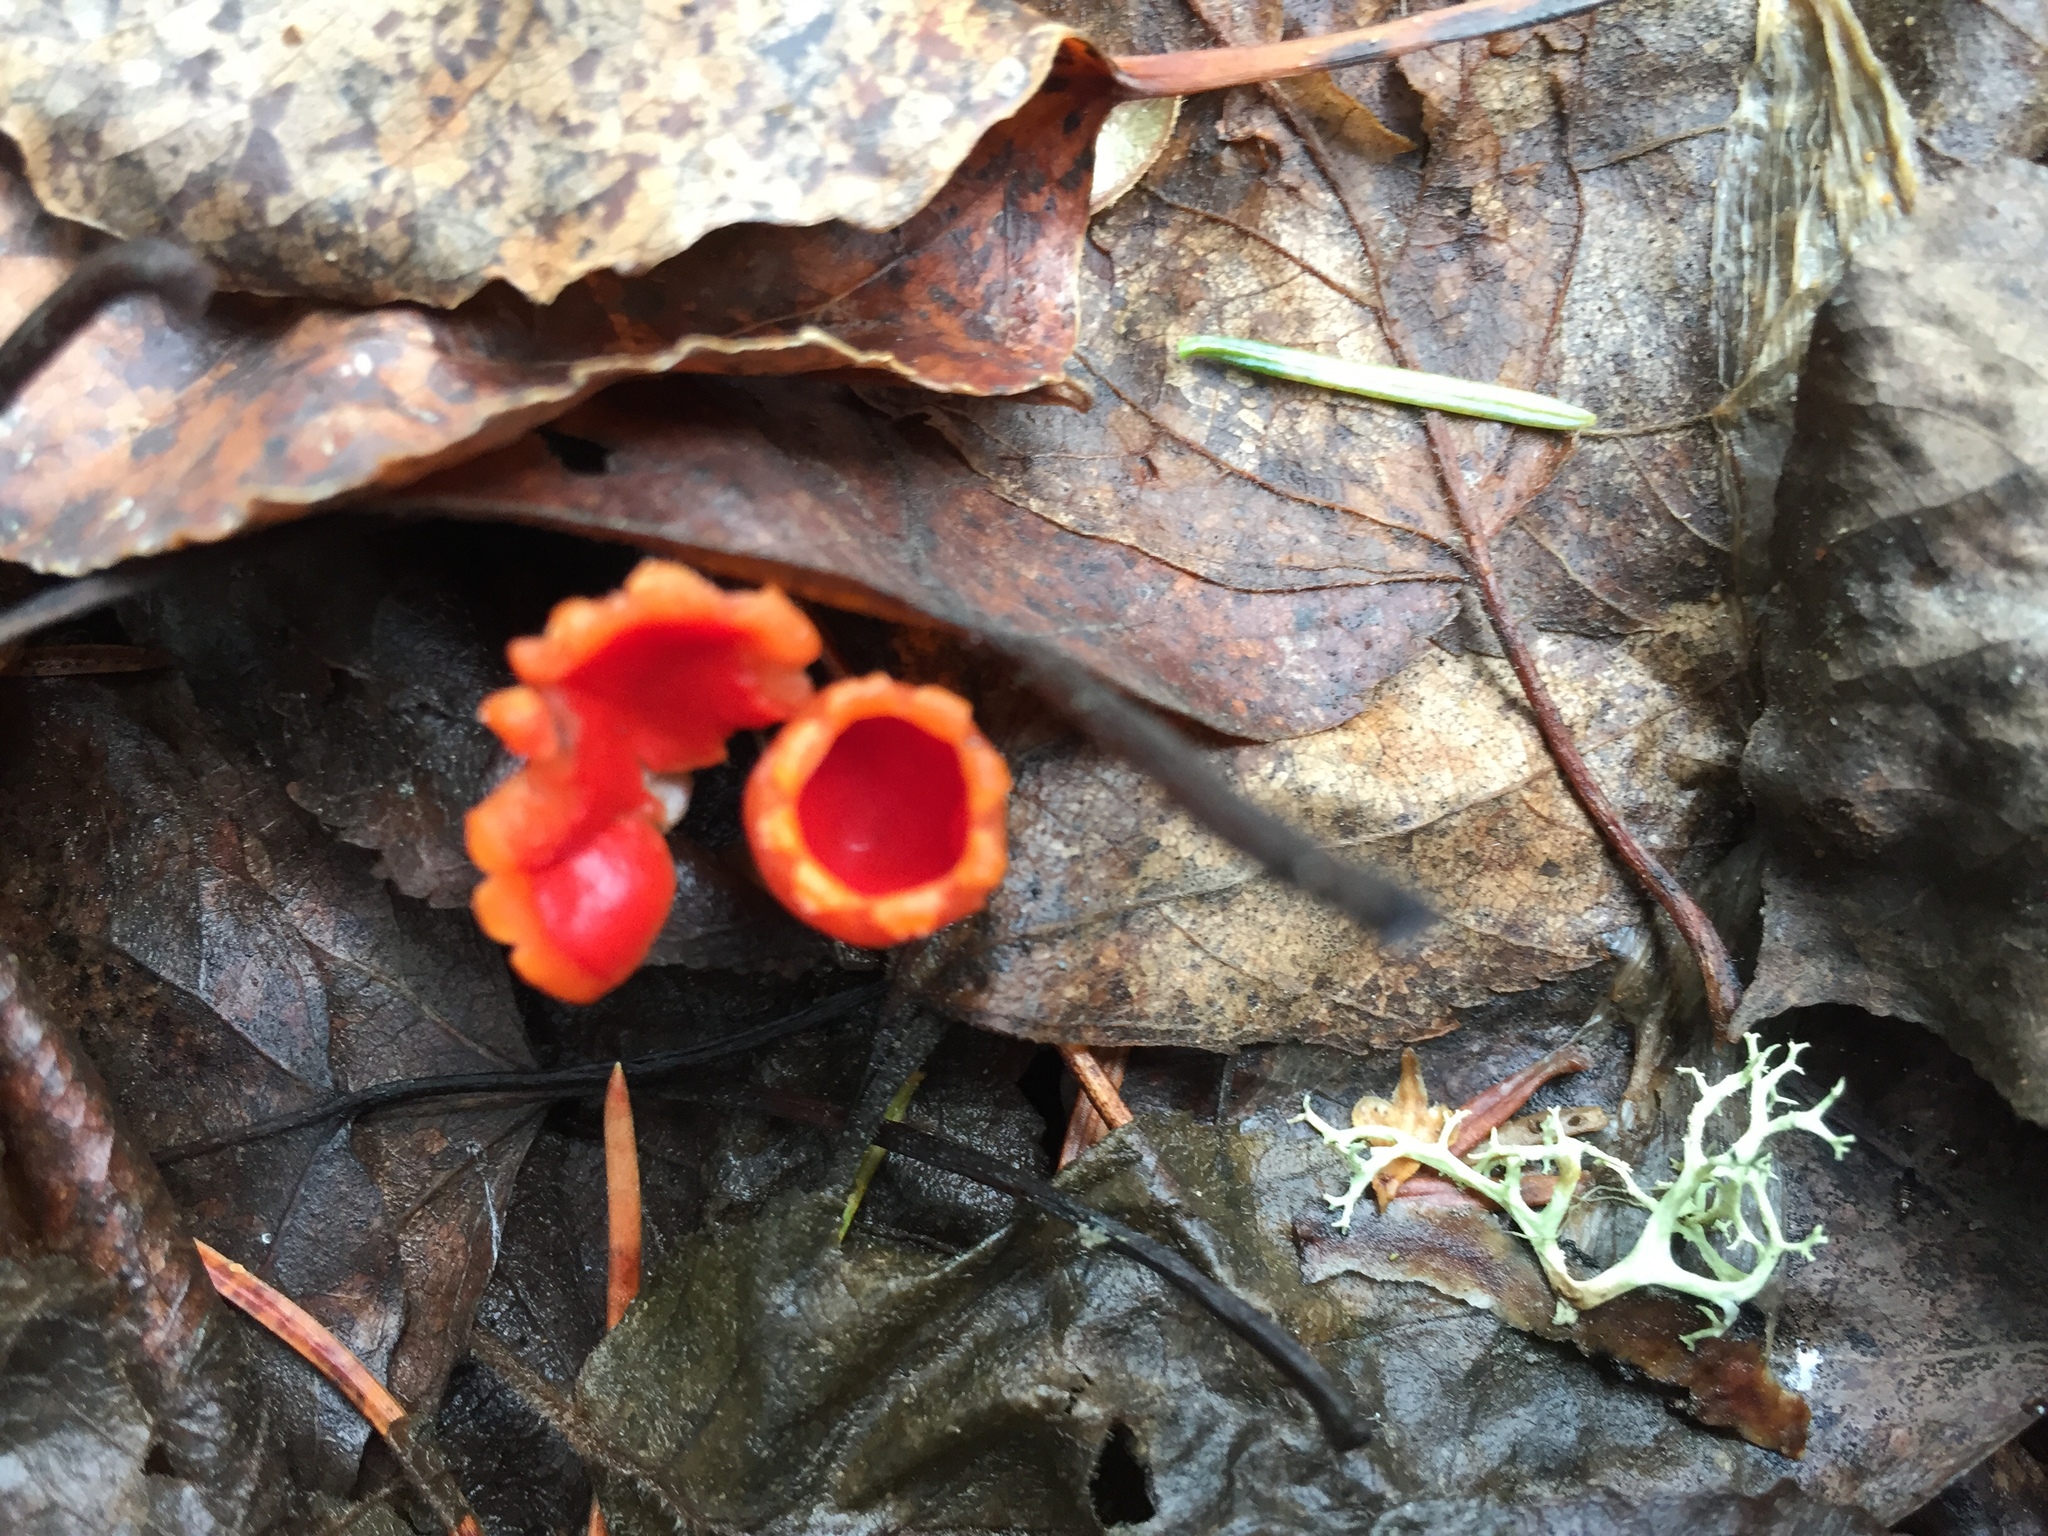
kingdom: Fungi
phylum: Ascomycota
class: Pezizomycetes
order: Pezizales
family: Sarcoscyphaceae
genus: Microstoma
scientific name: Microstoma protractum
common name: Rosy goblet
